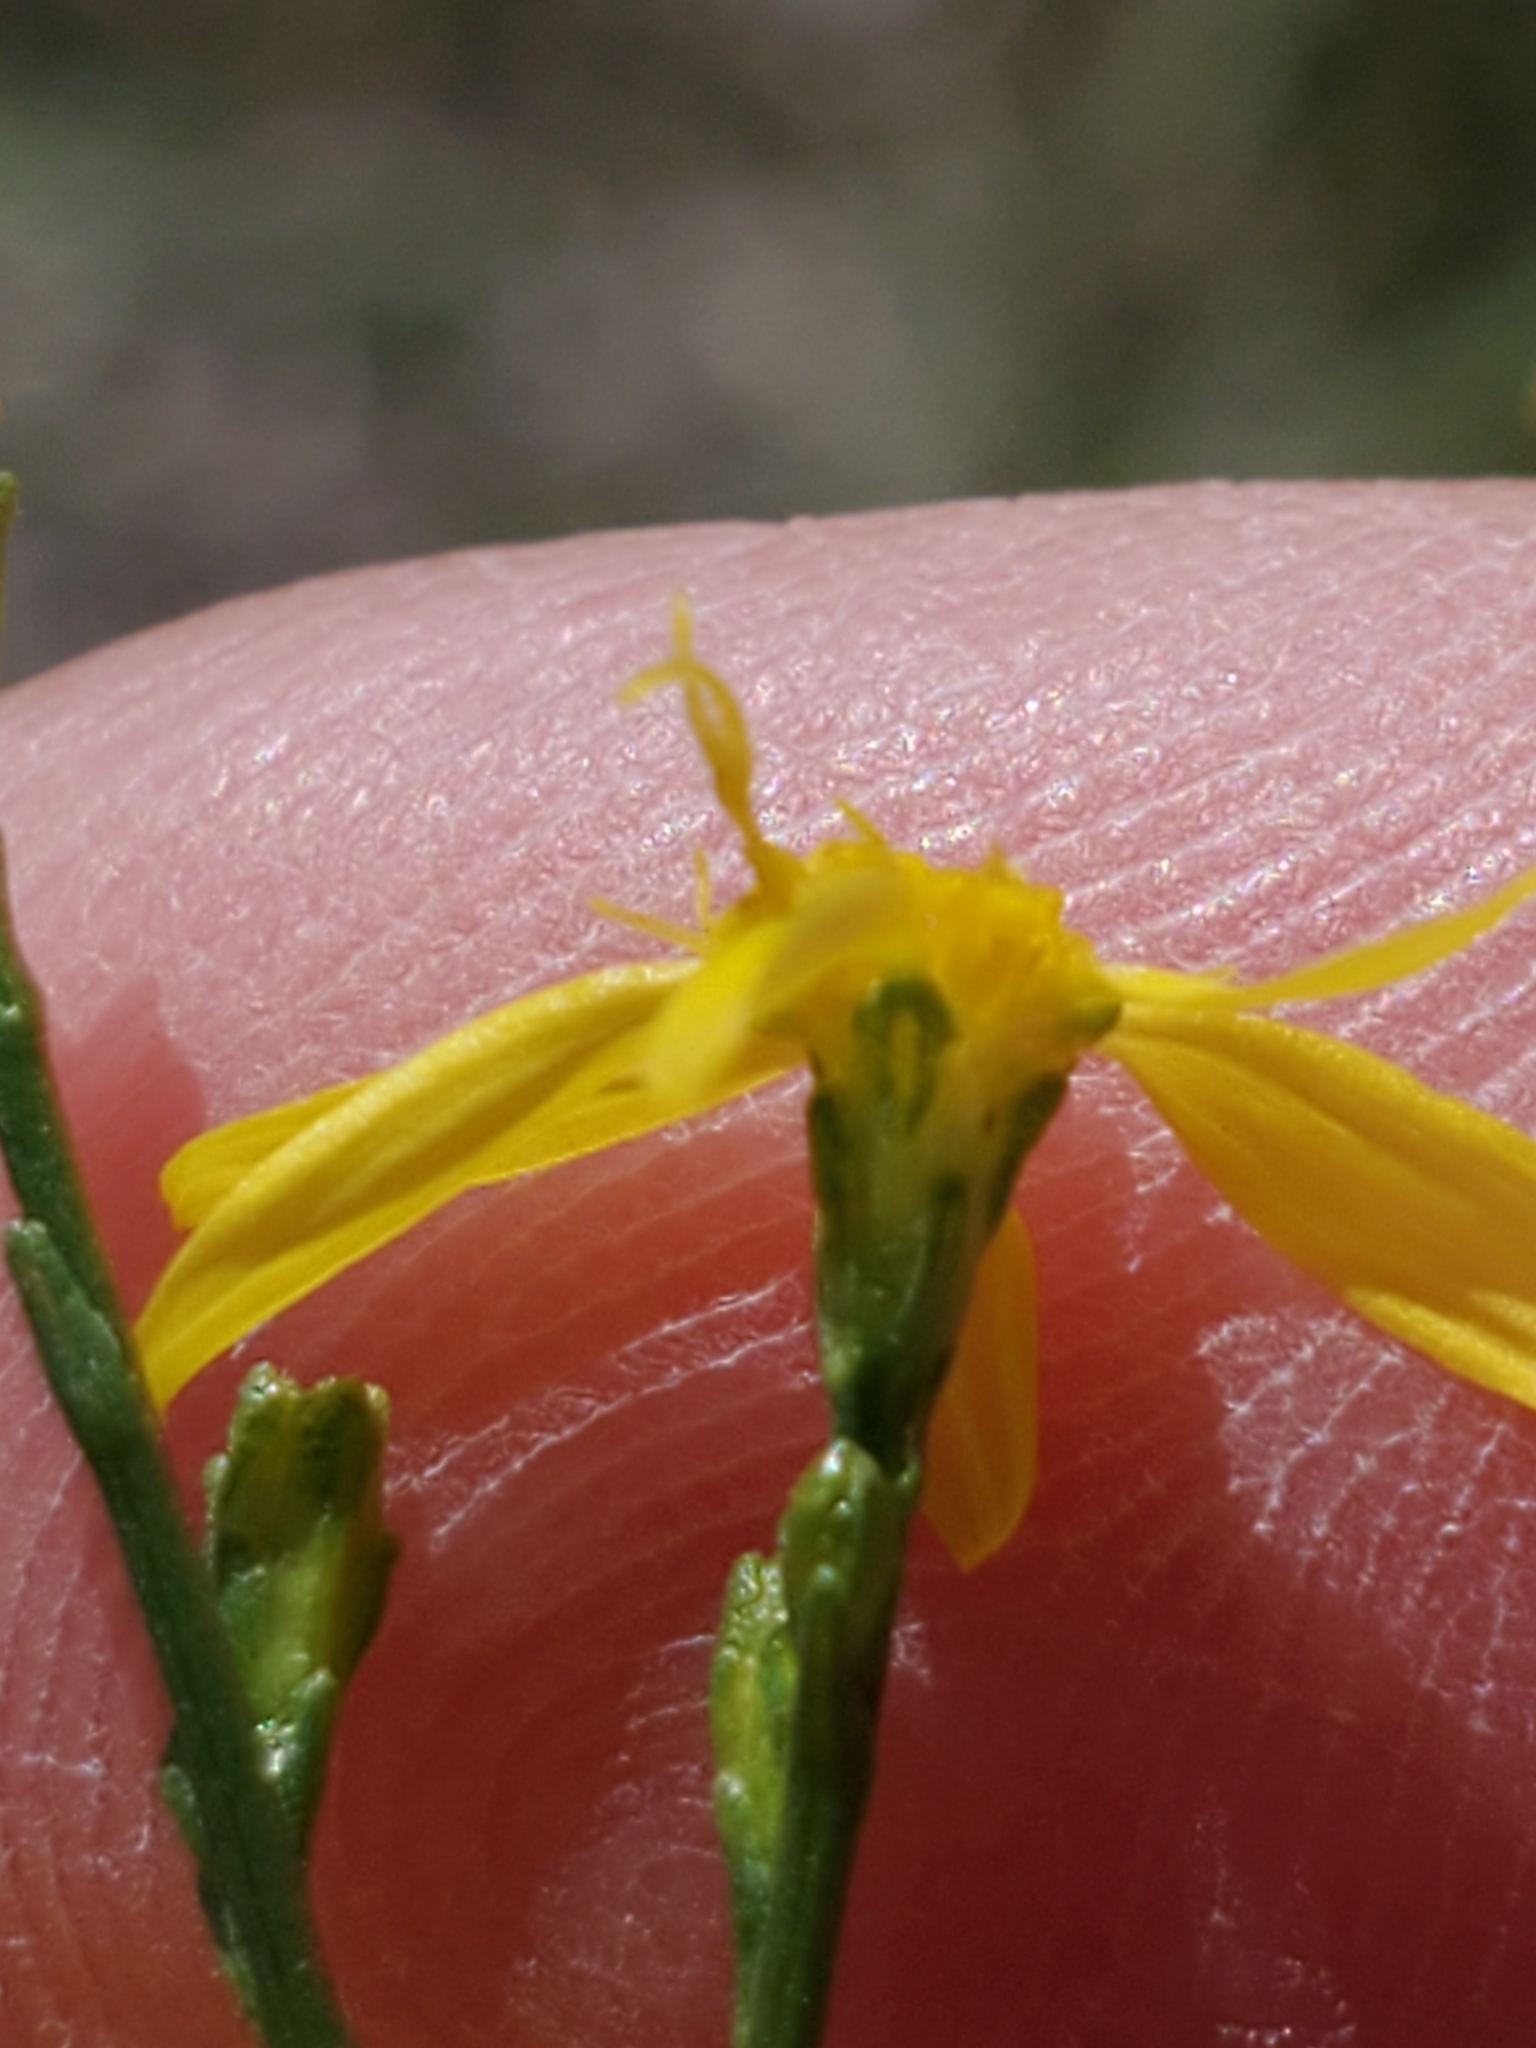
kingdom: Plantae
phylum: Tracheophyta
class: Magnoliopsida
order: Asterales
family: Asteraceae
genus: Gutierrezia
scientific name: Gutierrezia texana
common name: Texas snakeweed
